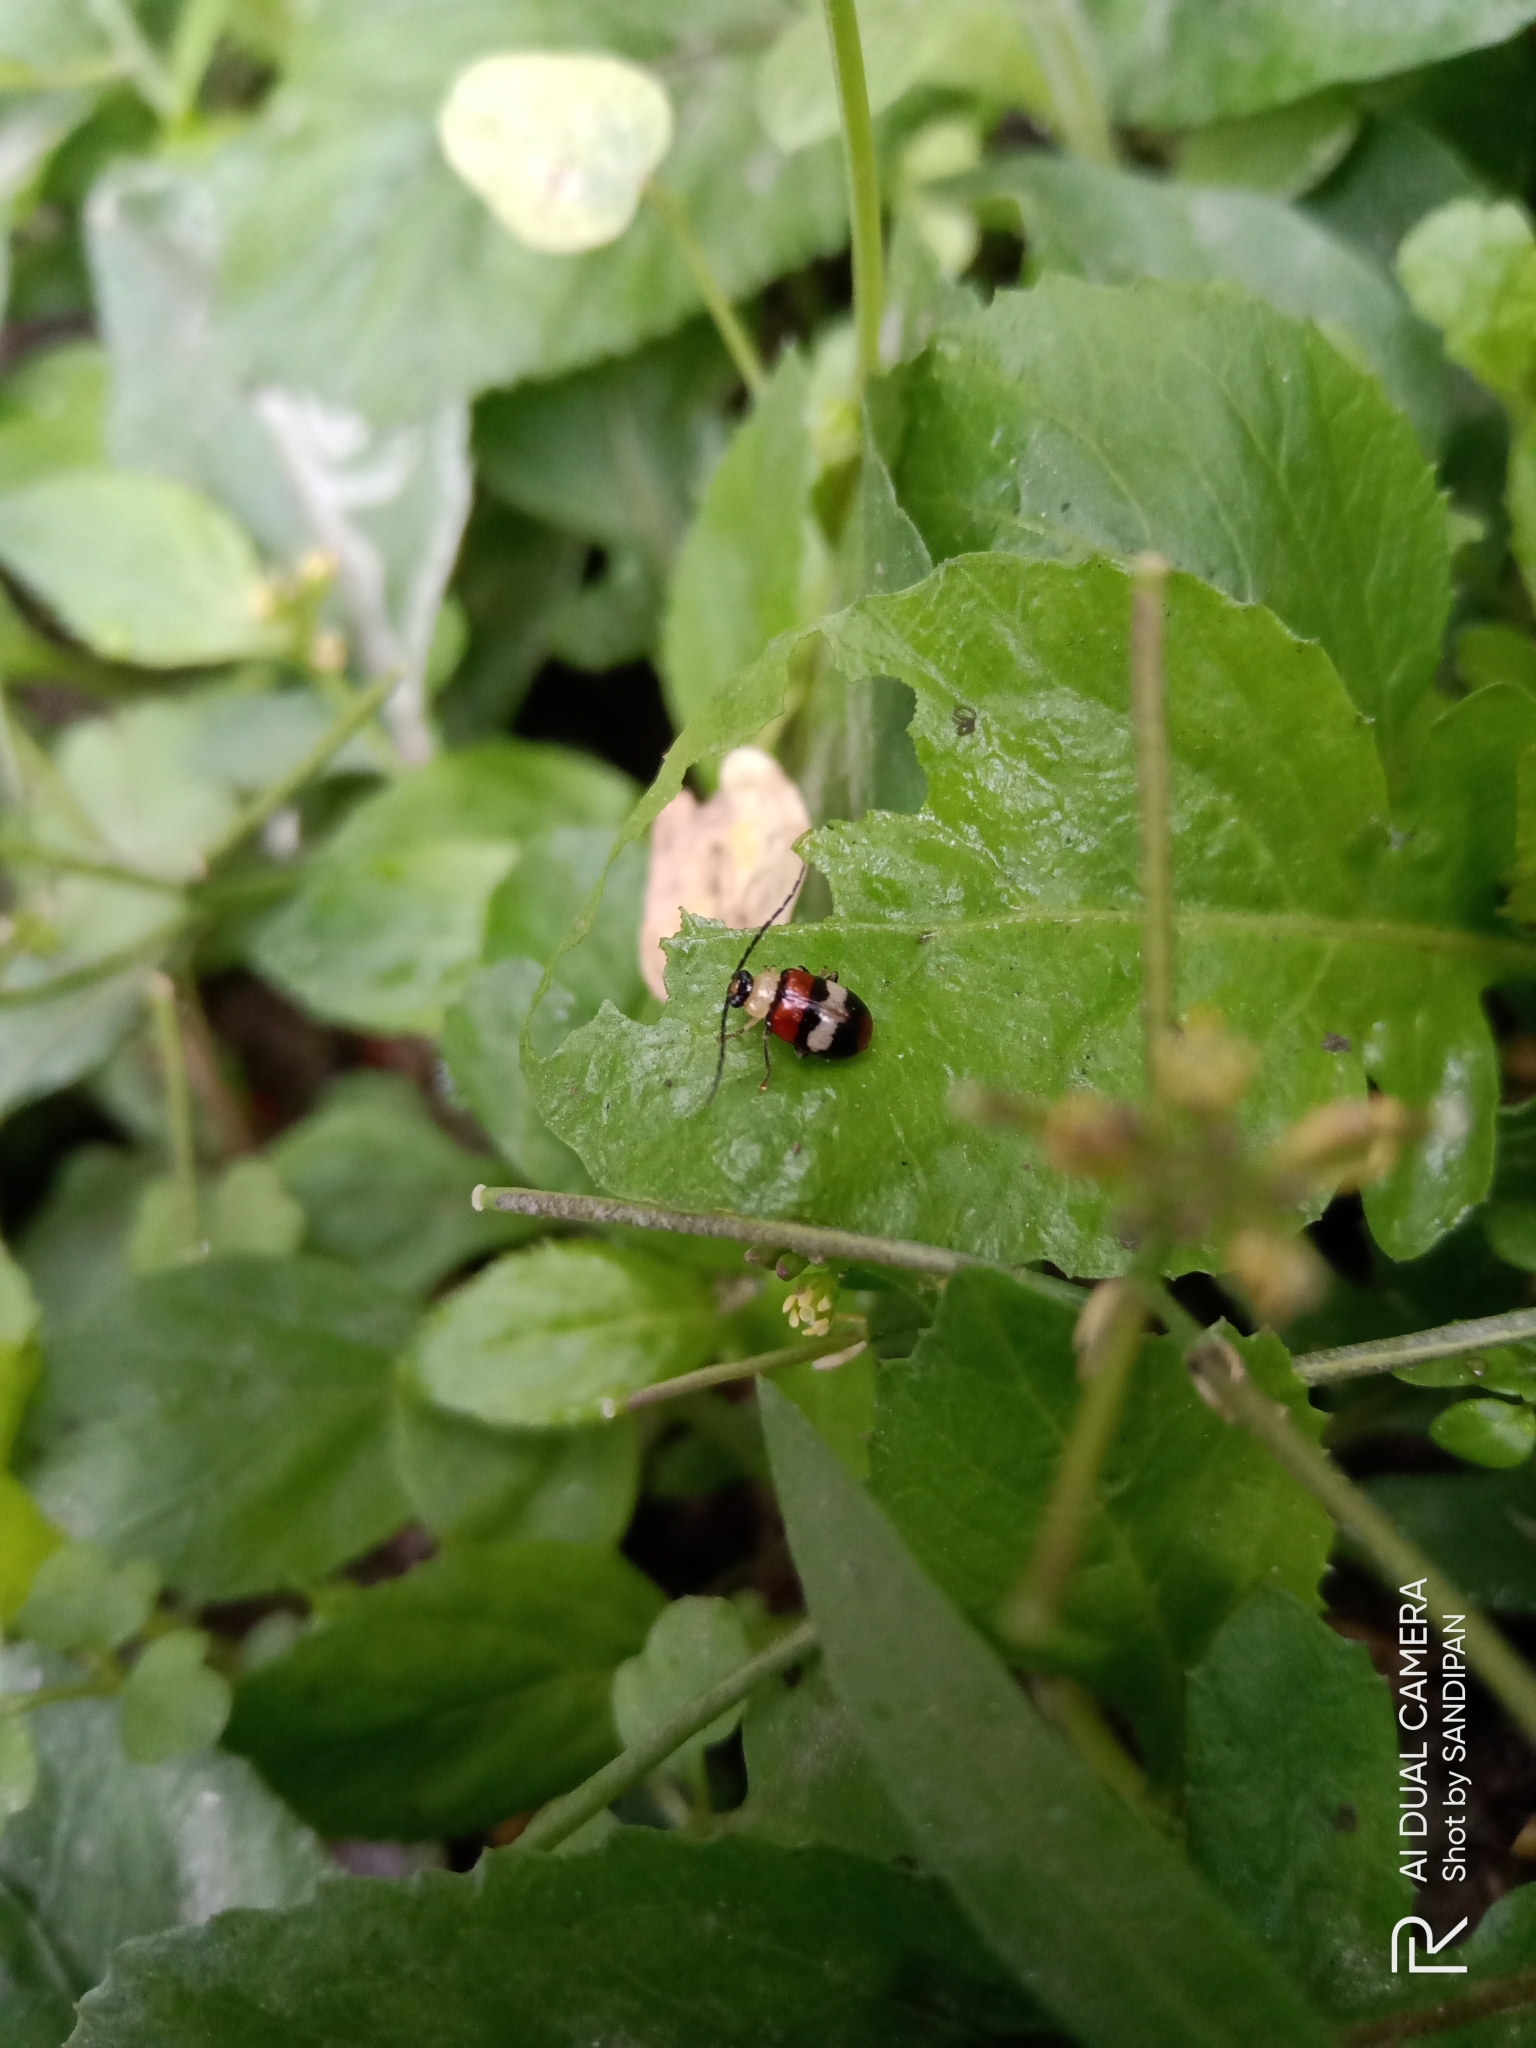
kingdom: Animalia
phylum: Arthropoda
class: Insecta
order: Coleoptera
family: Chrysomelidae
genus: Dercetina
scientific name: Dercetina
